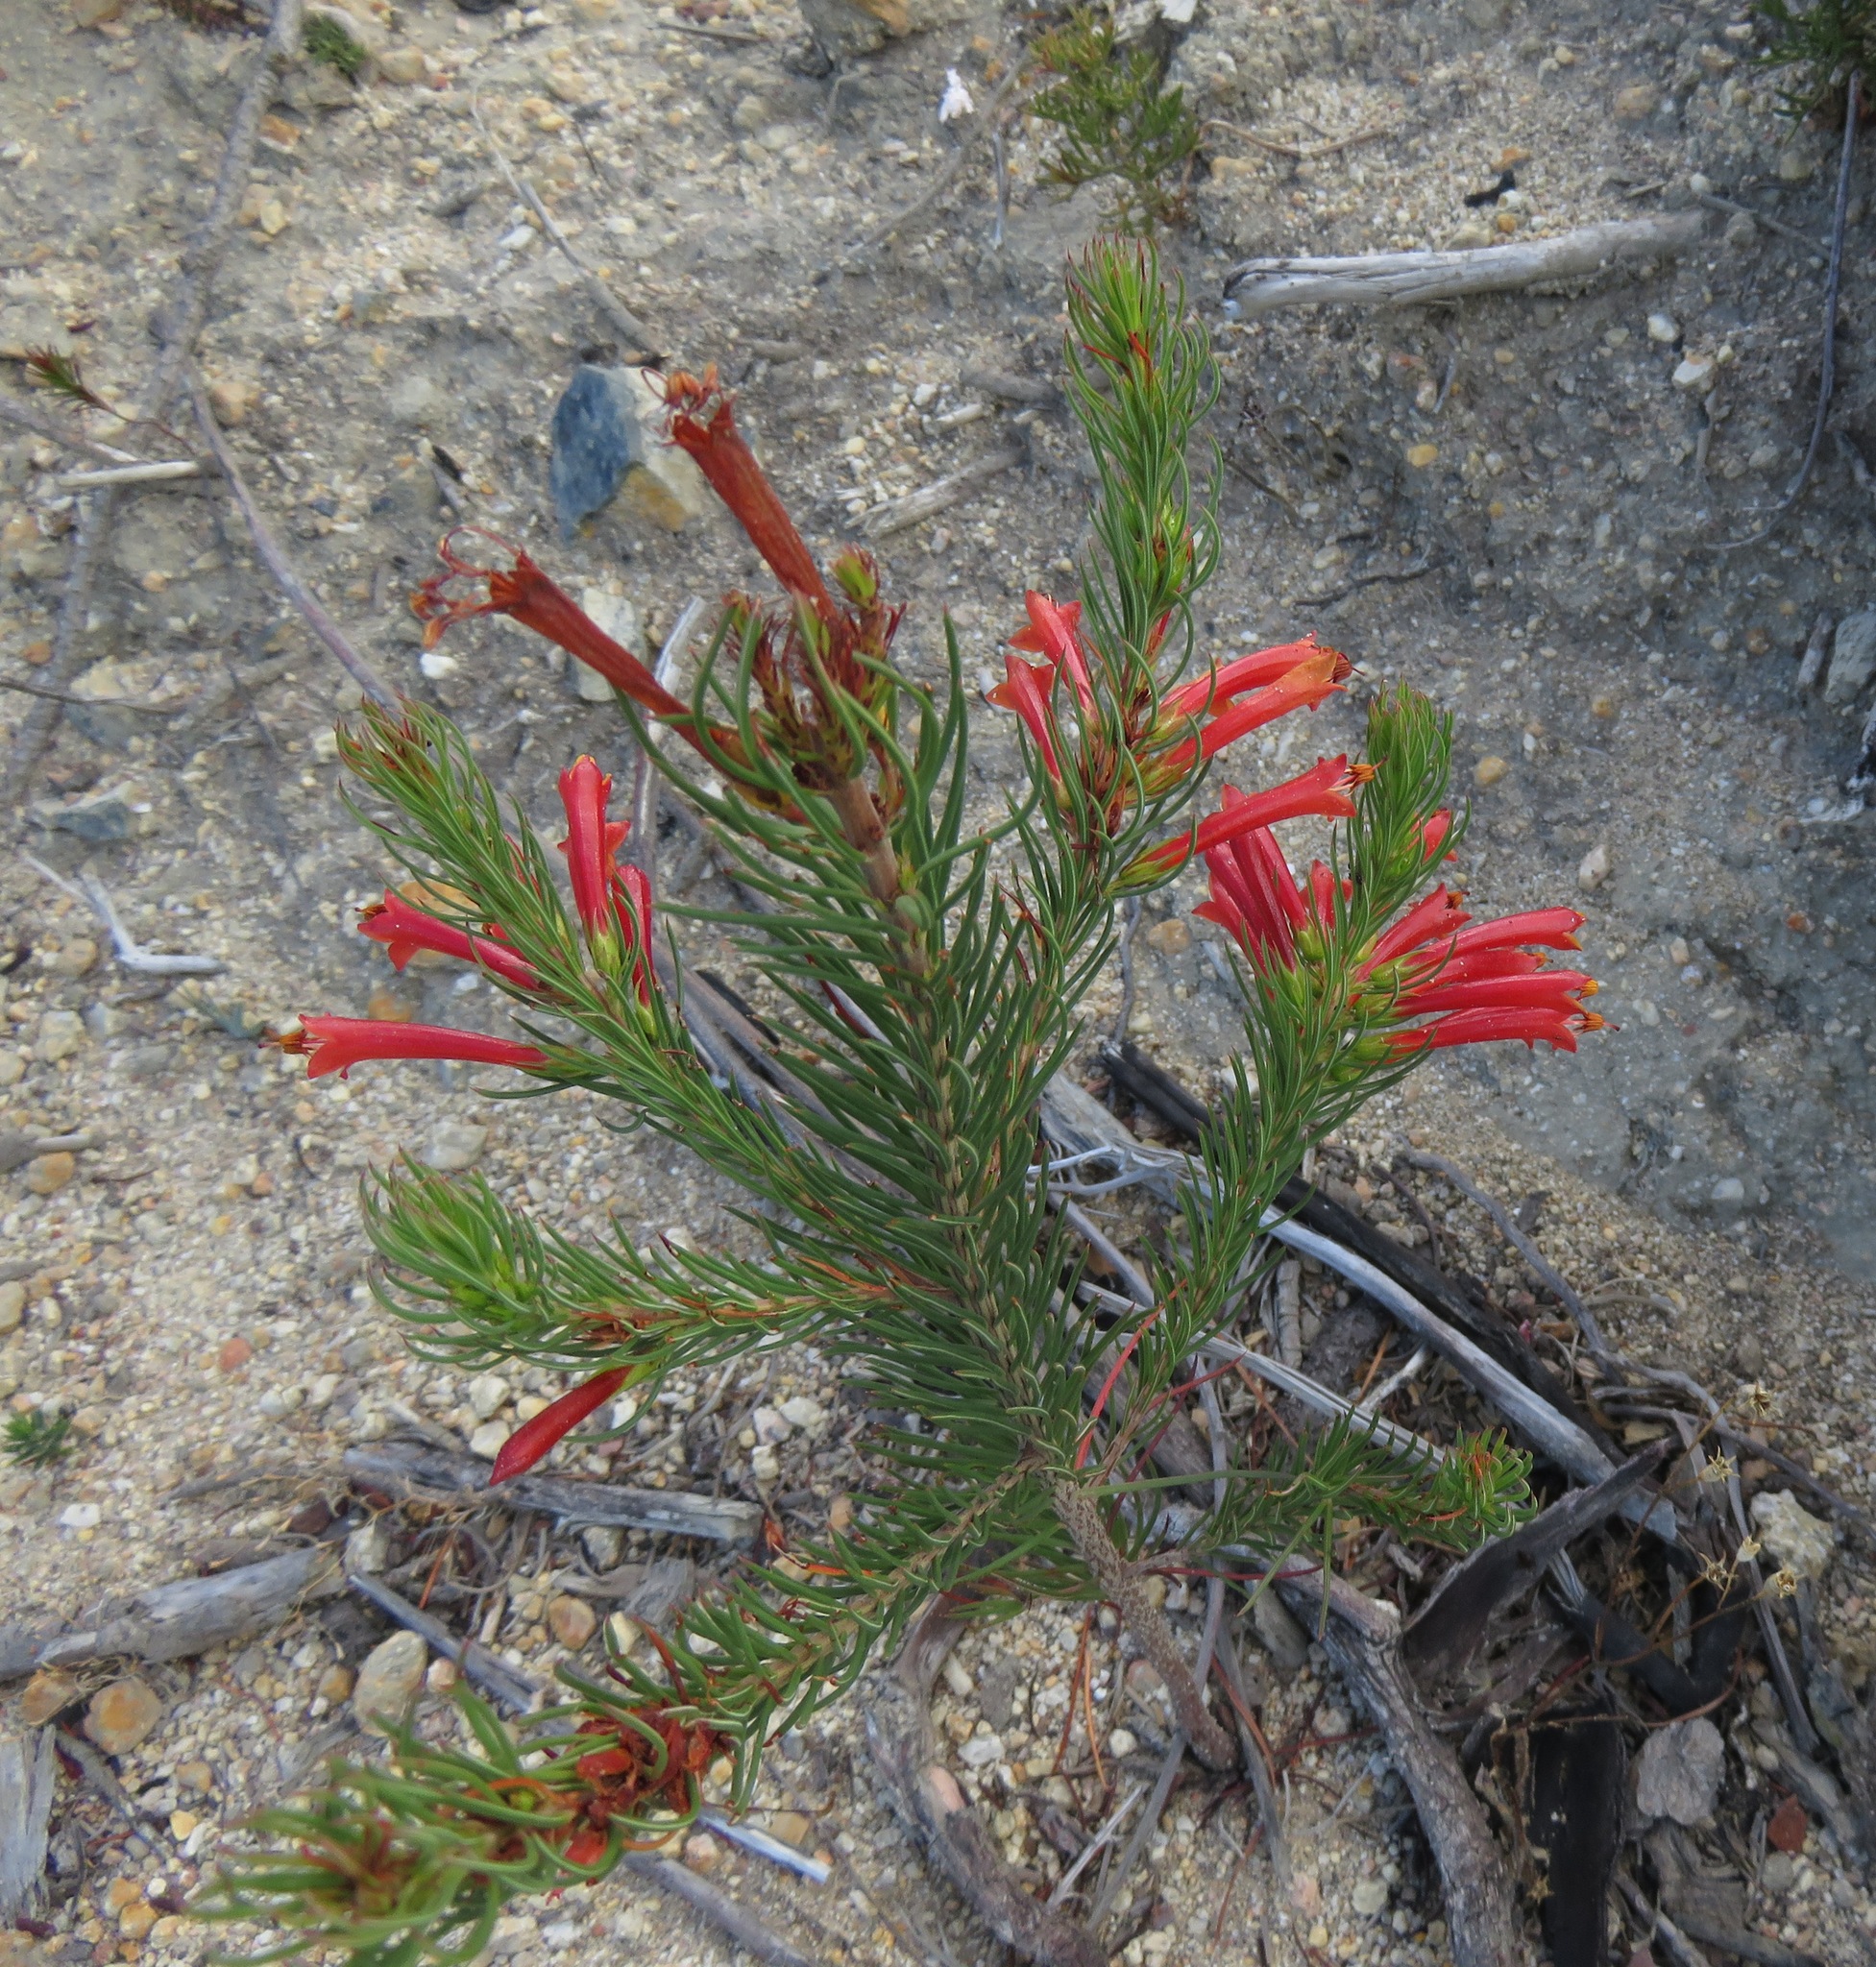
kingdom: Plantae
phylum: Tracheophyta
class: Magnoliopsida
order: Ericales
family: Ericaceae
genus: Erica
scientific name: Erica grandiflora
